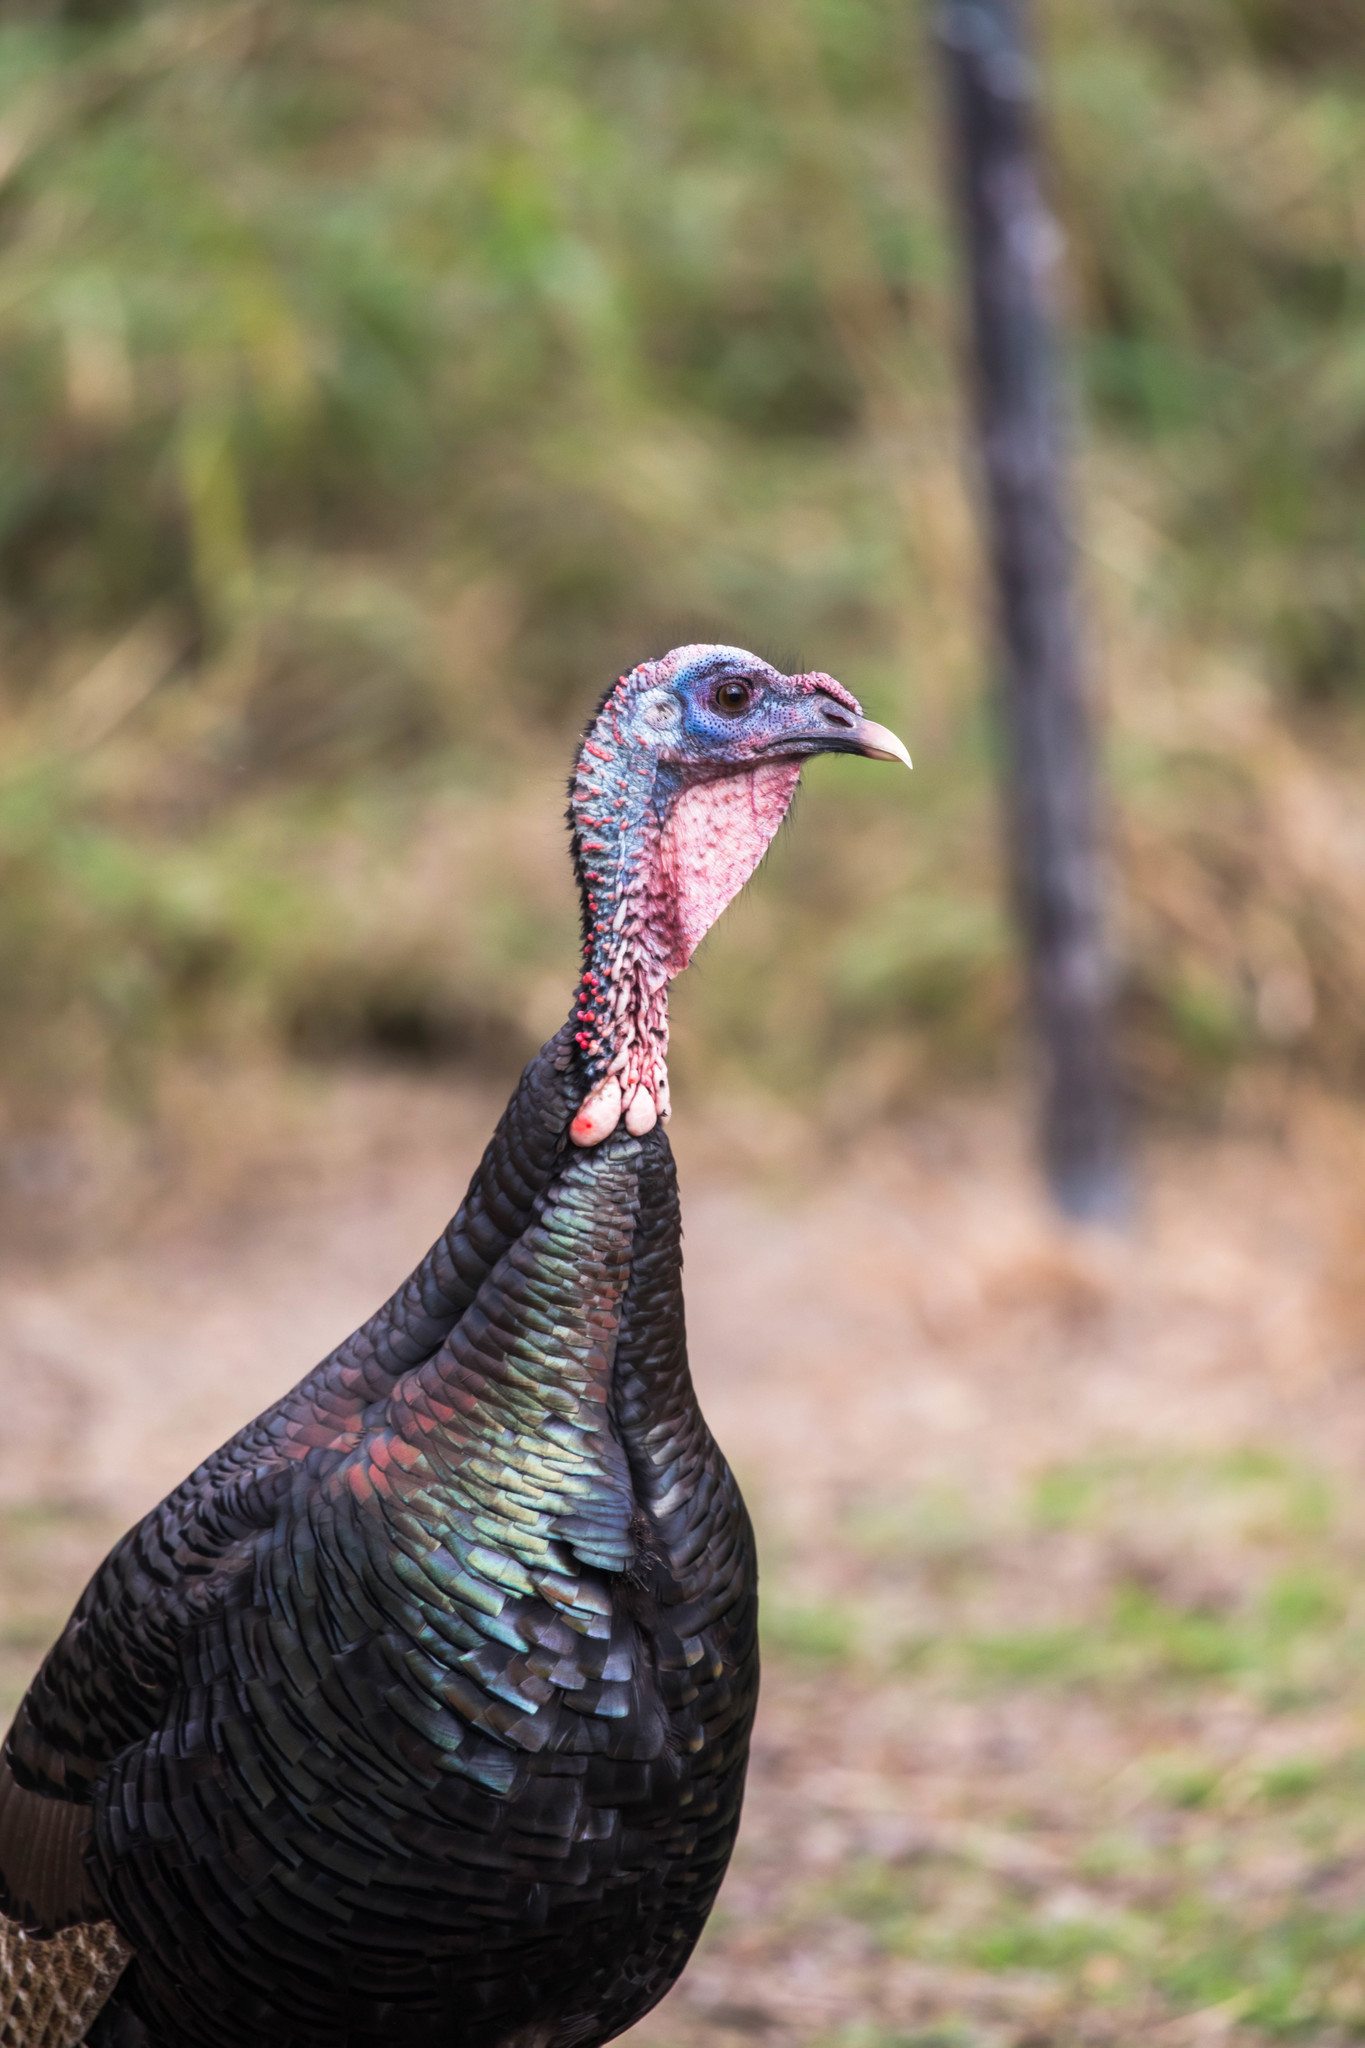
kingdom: Animalia
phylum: Chordata
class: Aves
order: Galliformes
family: Phasianidae
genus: Meleagris
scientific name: Meleagris gallopavo
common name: Wild turkey
